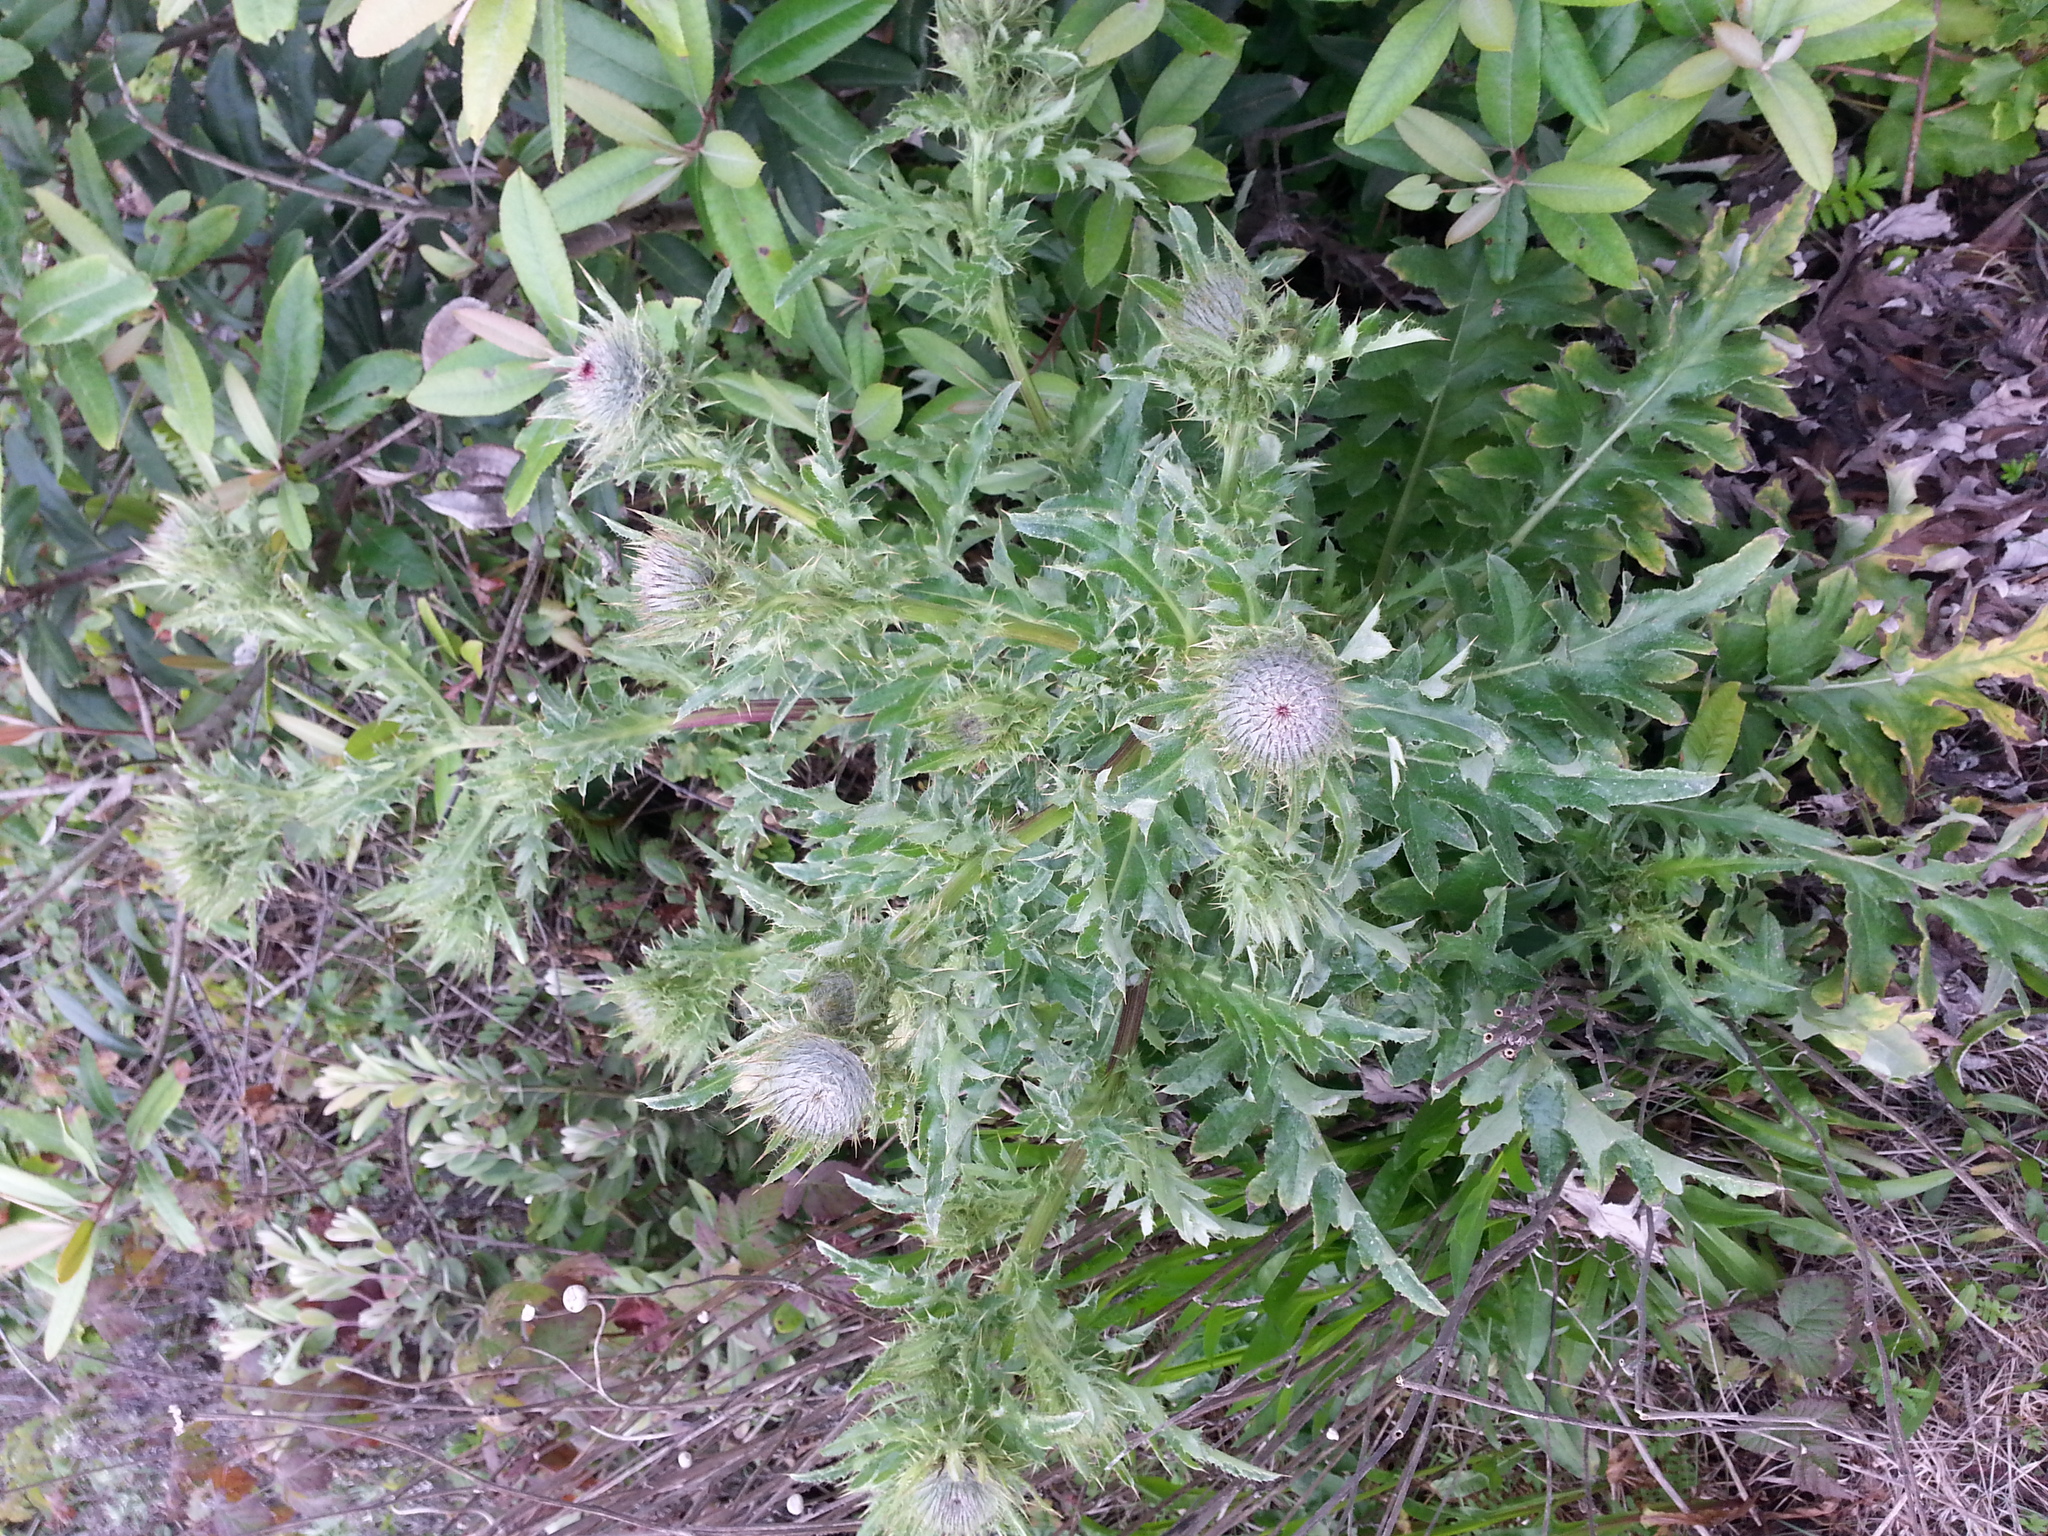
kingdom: Plantae
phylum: Tracheophyta
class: Magnoliopsida
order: Asterales
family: Asteraceae
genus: Cirsium
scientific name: Cirsium andrewsii
